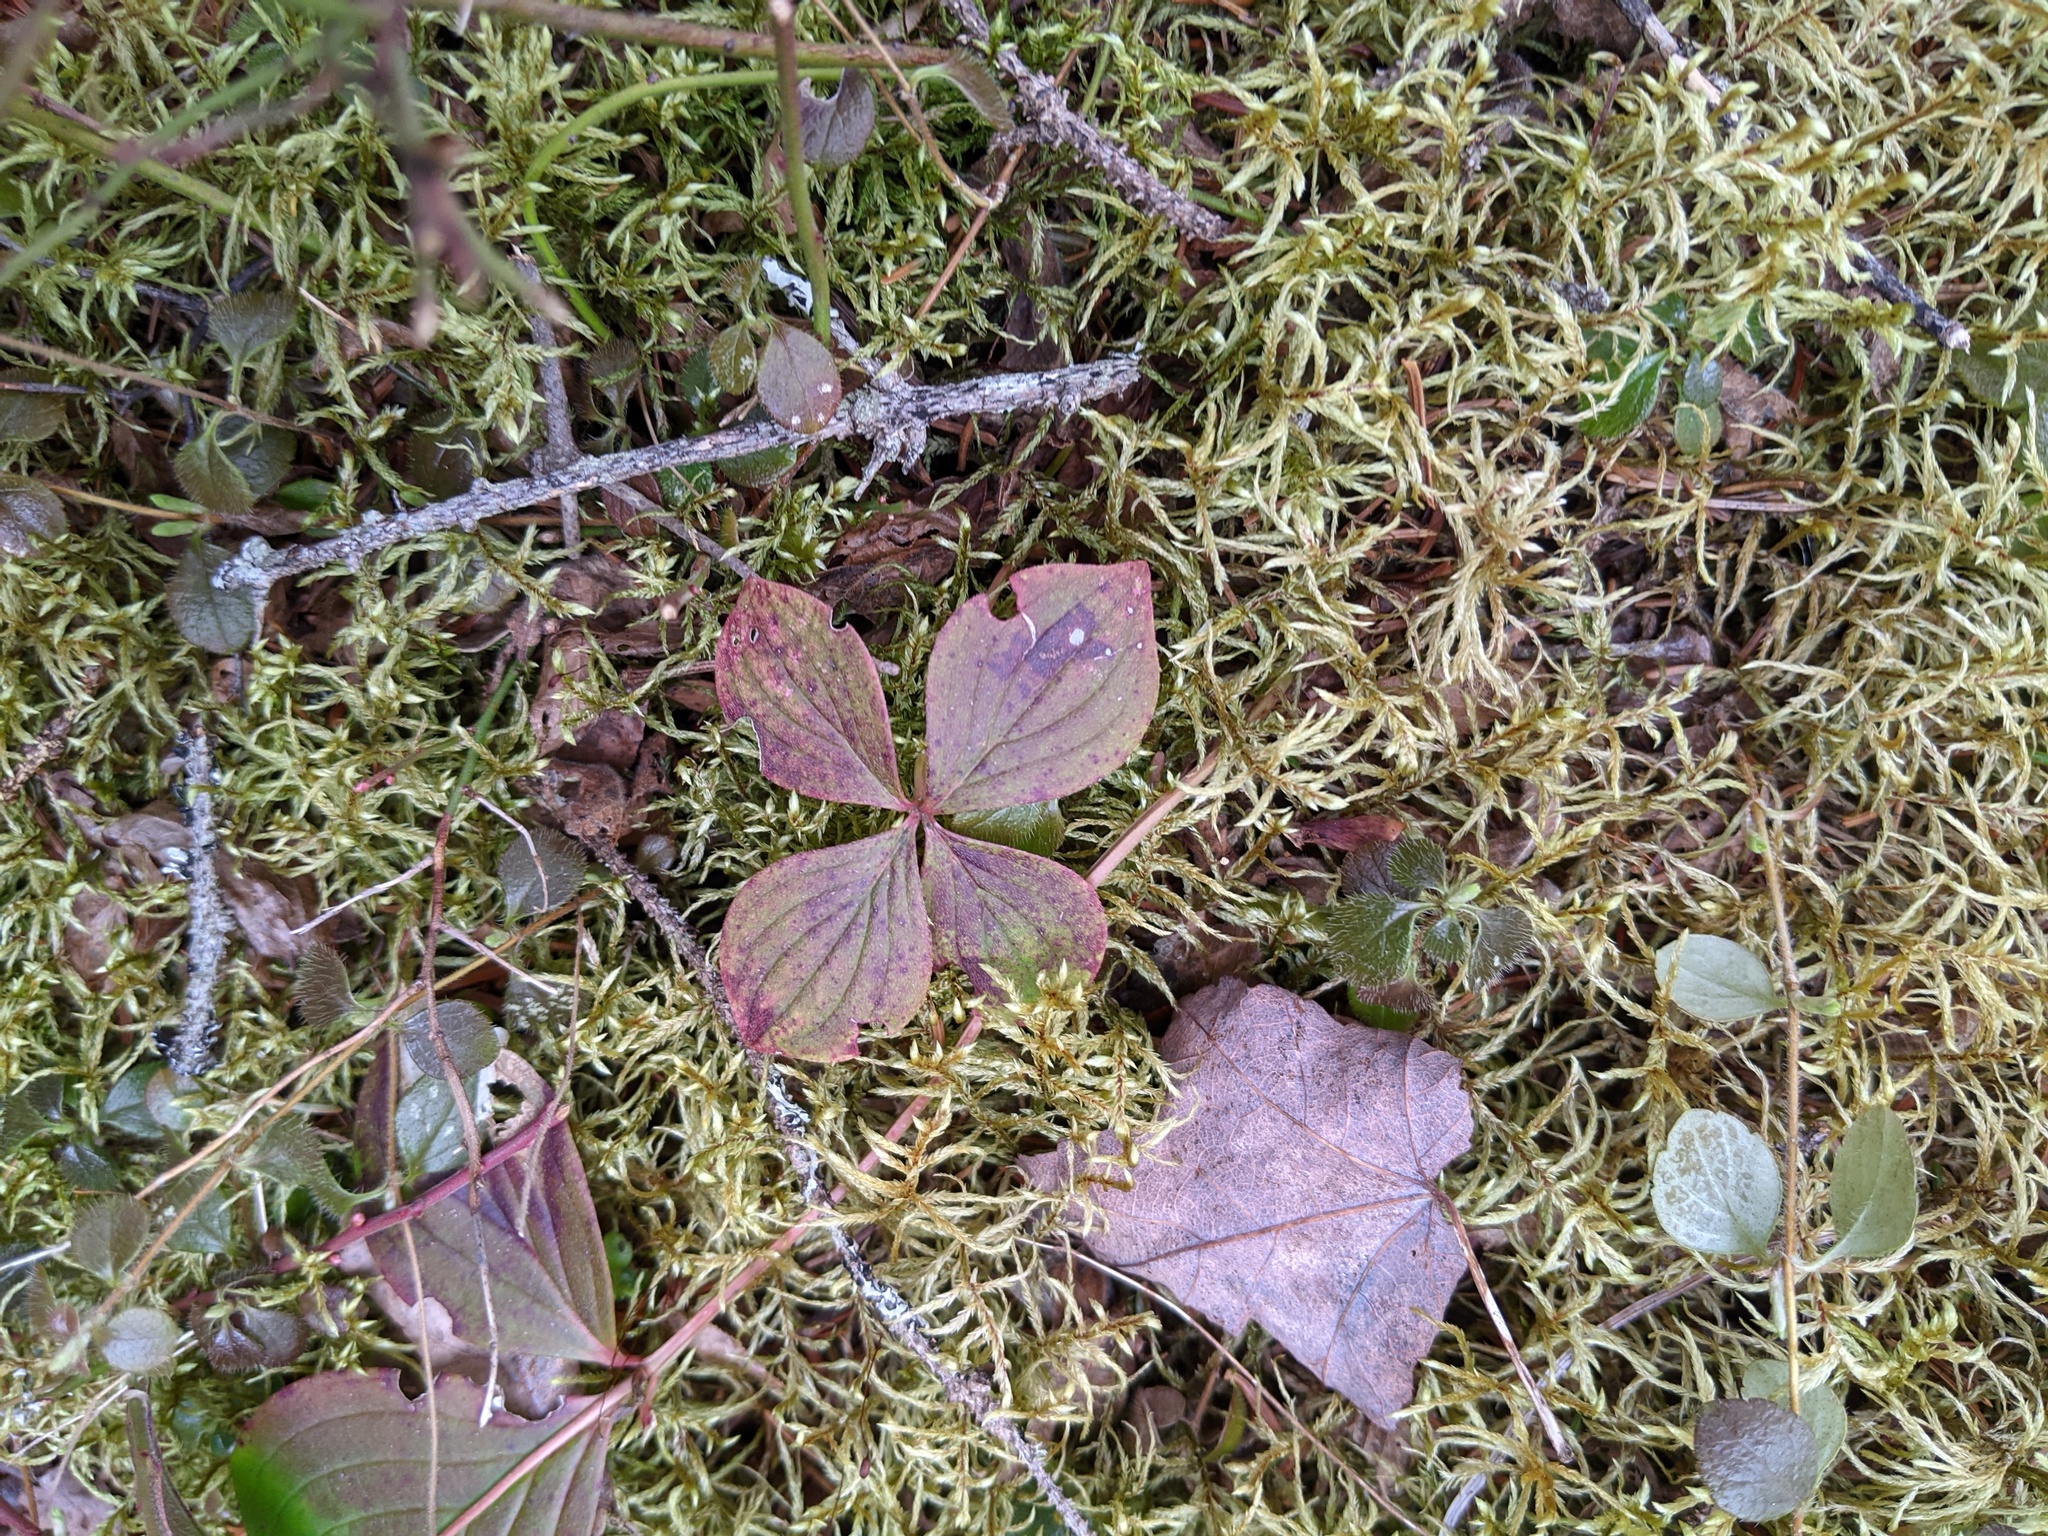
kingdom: Plantae
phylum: Tracheophyta
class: Magnoliopsida
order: Cornales
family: Cornaceae
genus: Cornus
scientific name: Cornus canadensis
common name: Creeping dogwood
